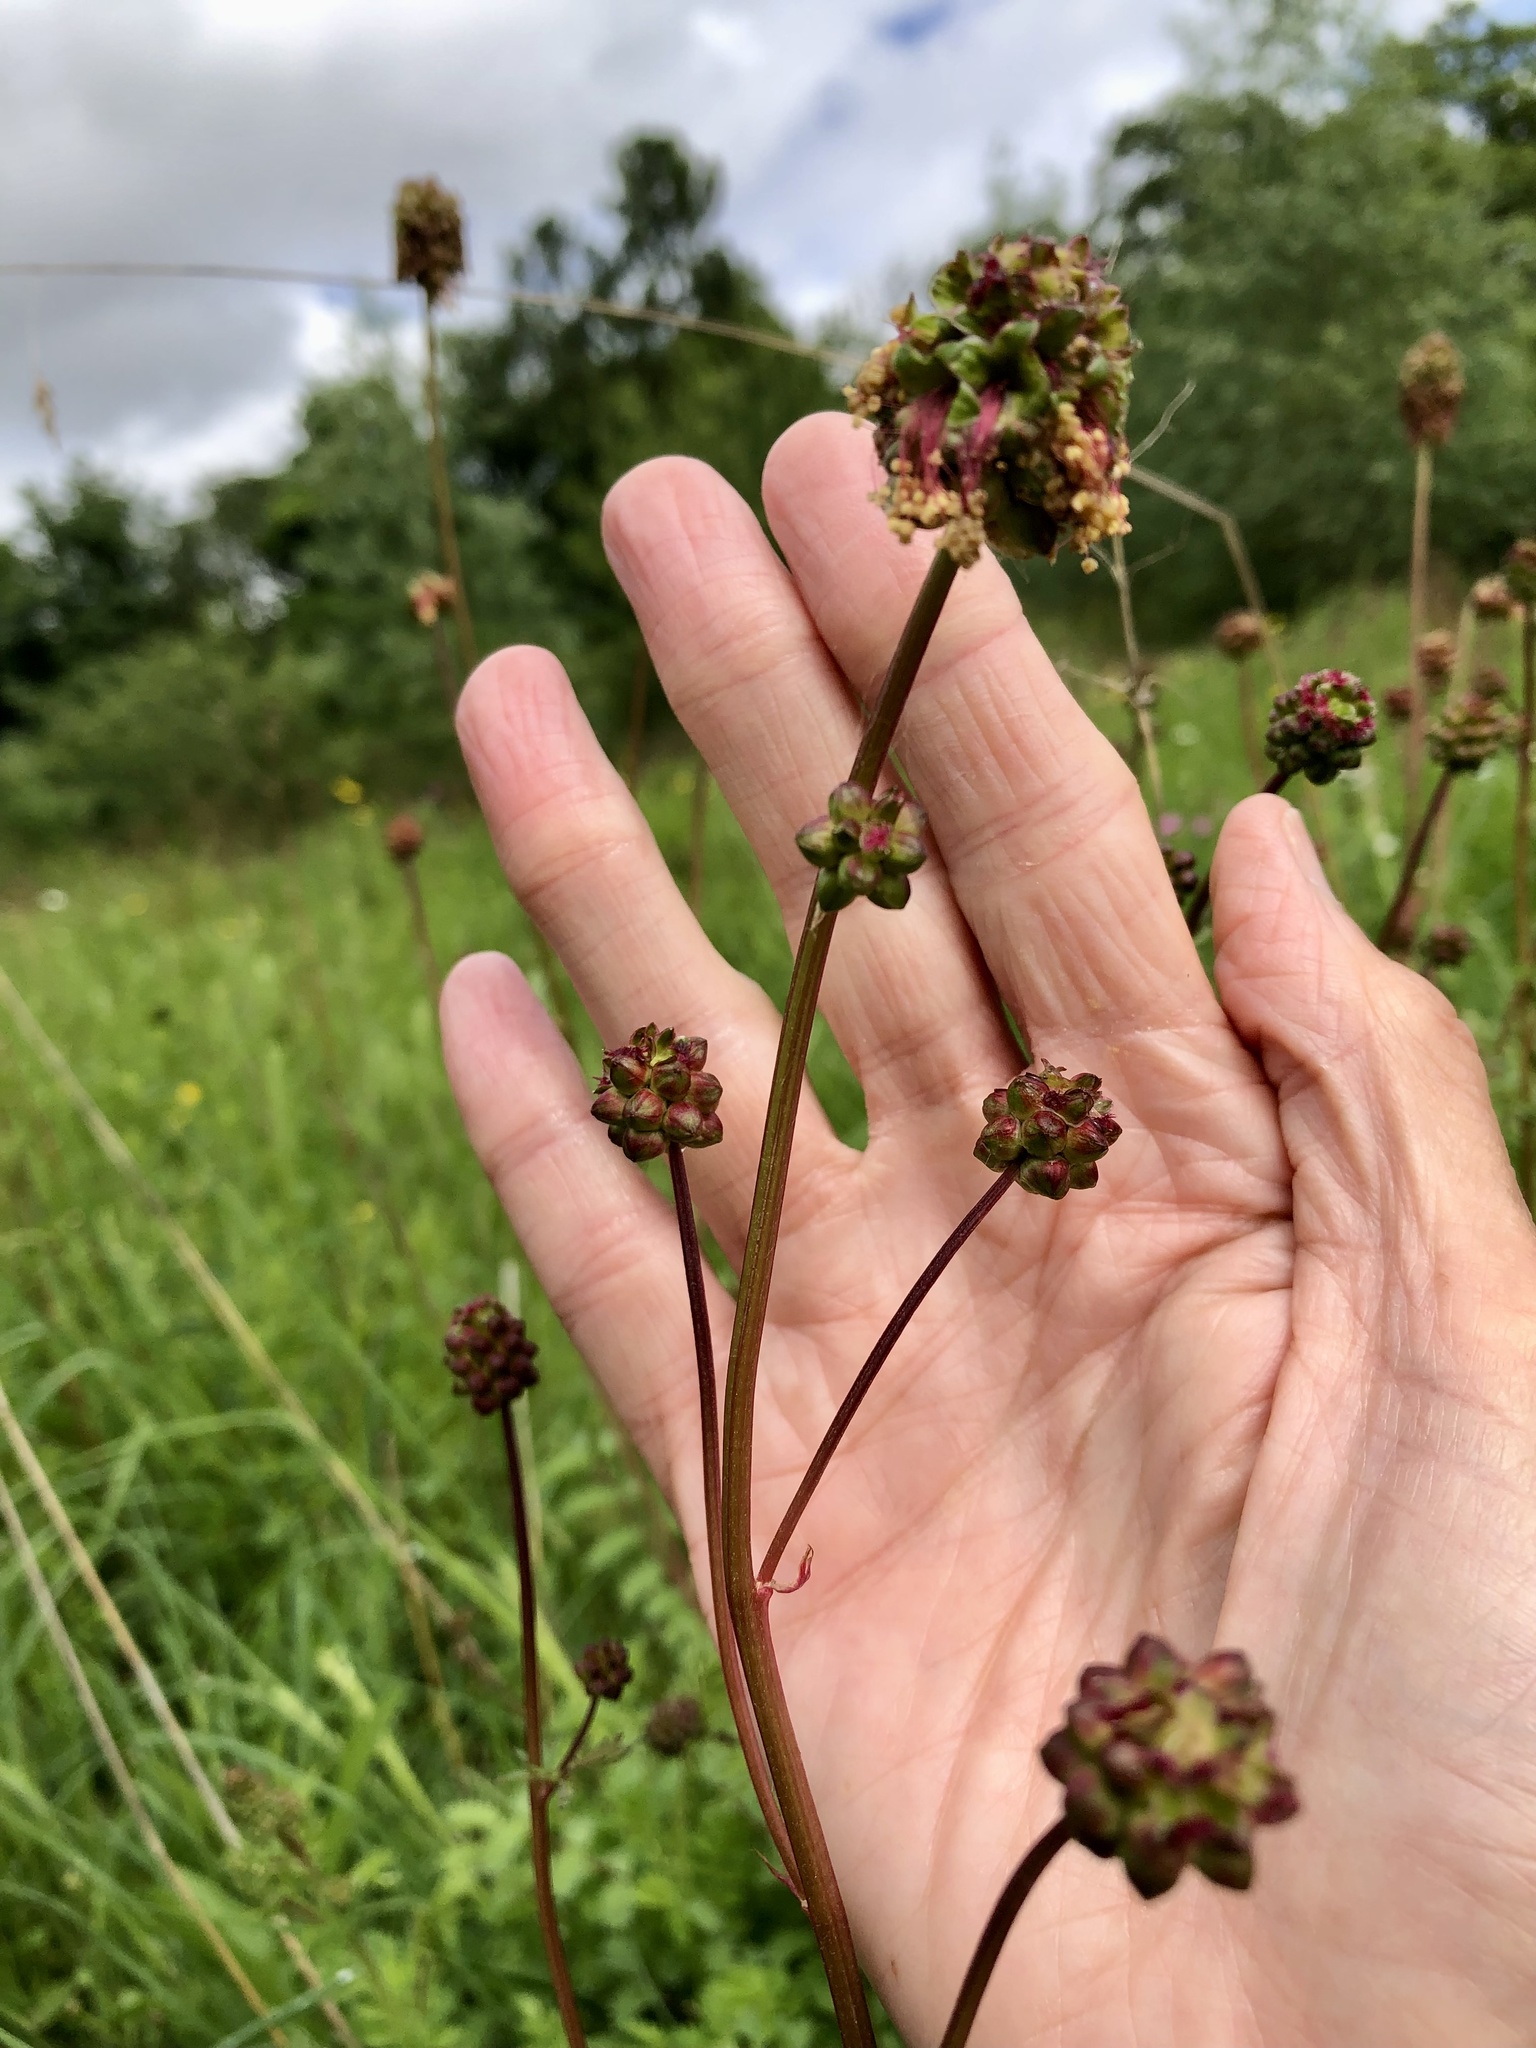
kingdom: Plantae
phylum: Tracheophyta
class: Magnoliopsida
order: Rosales
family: Rosaceae
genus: Poterium
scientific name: Poterium sanguisorba
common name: Salad burnet
